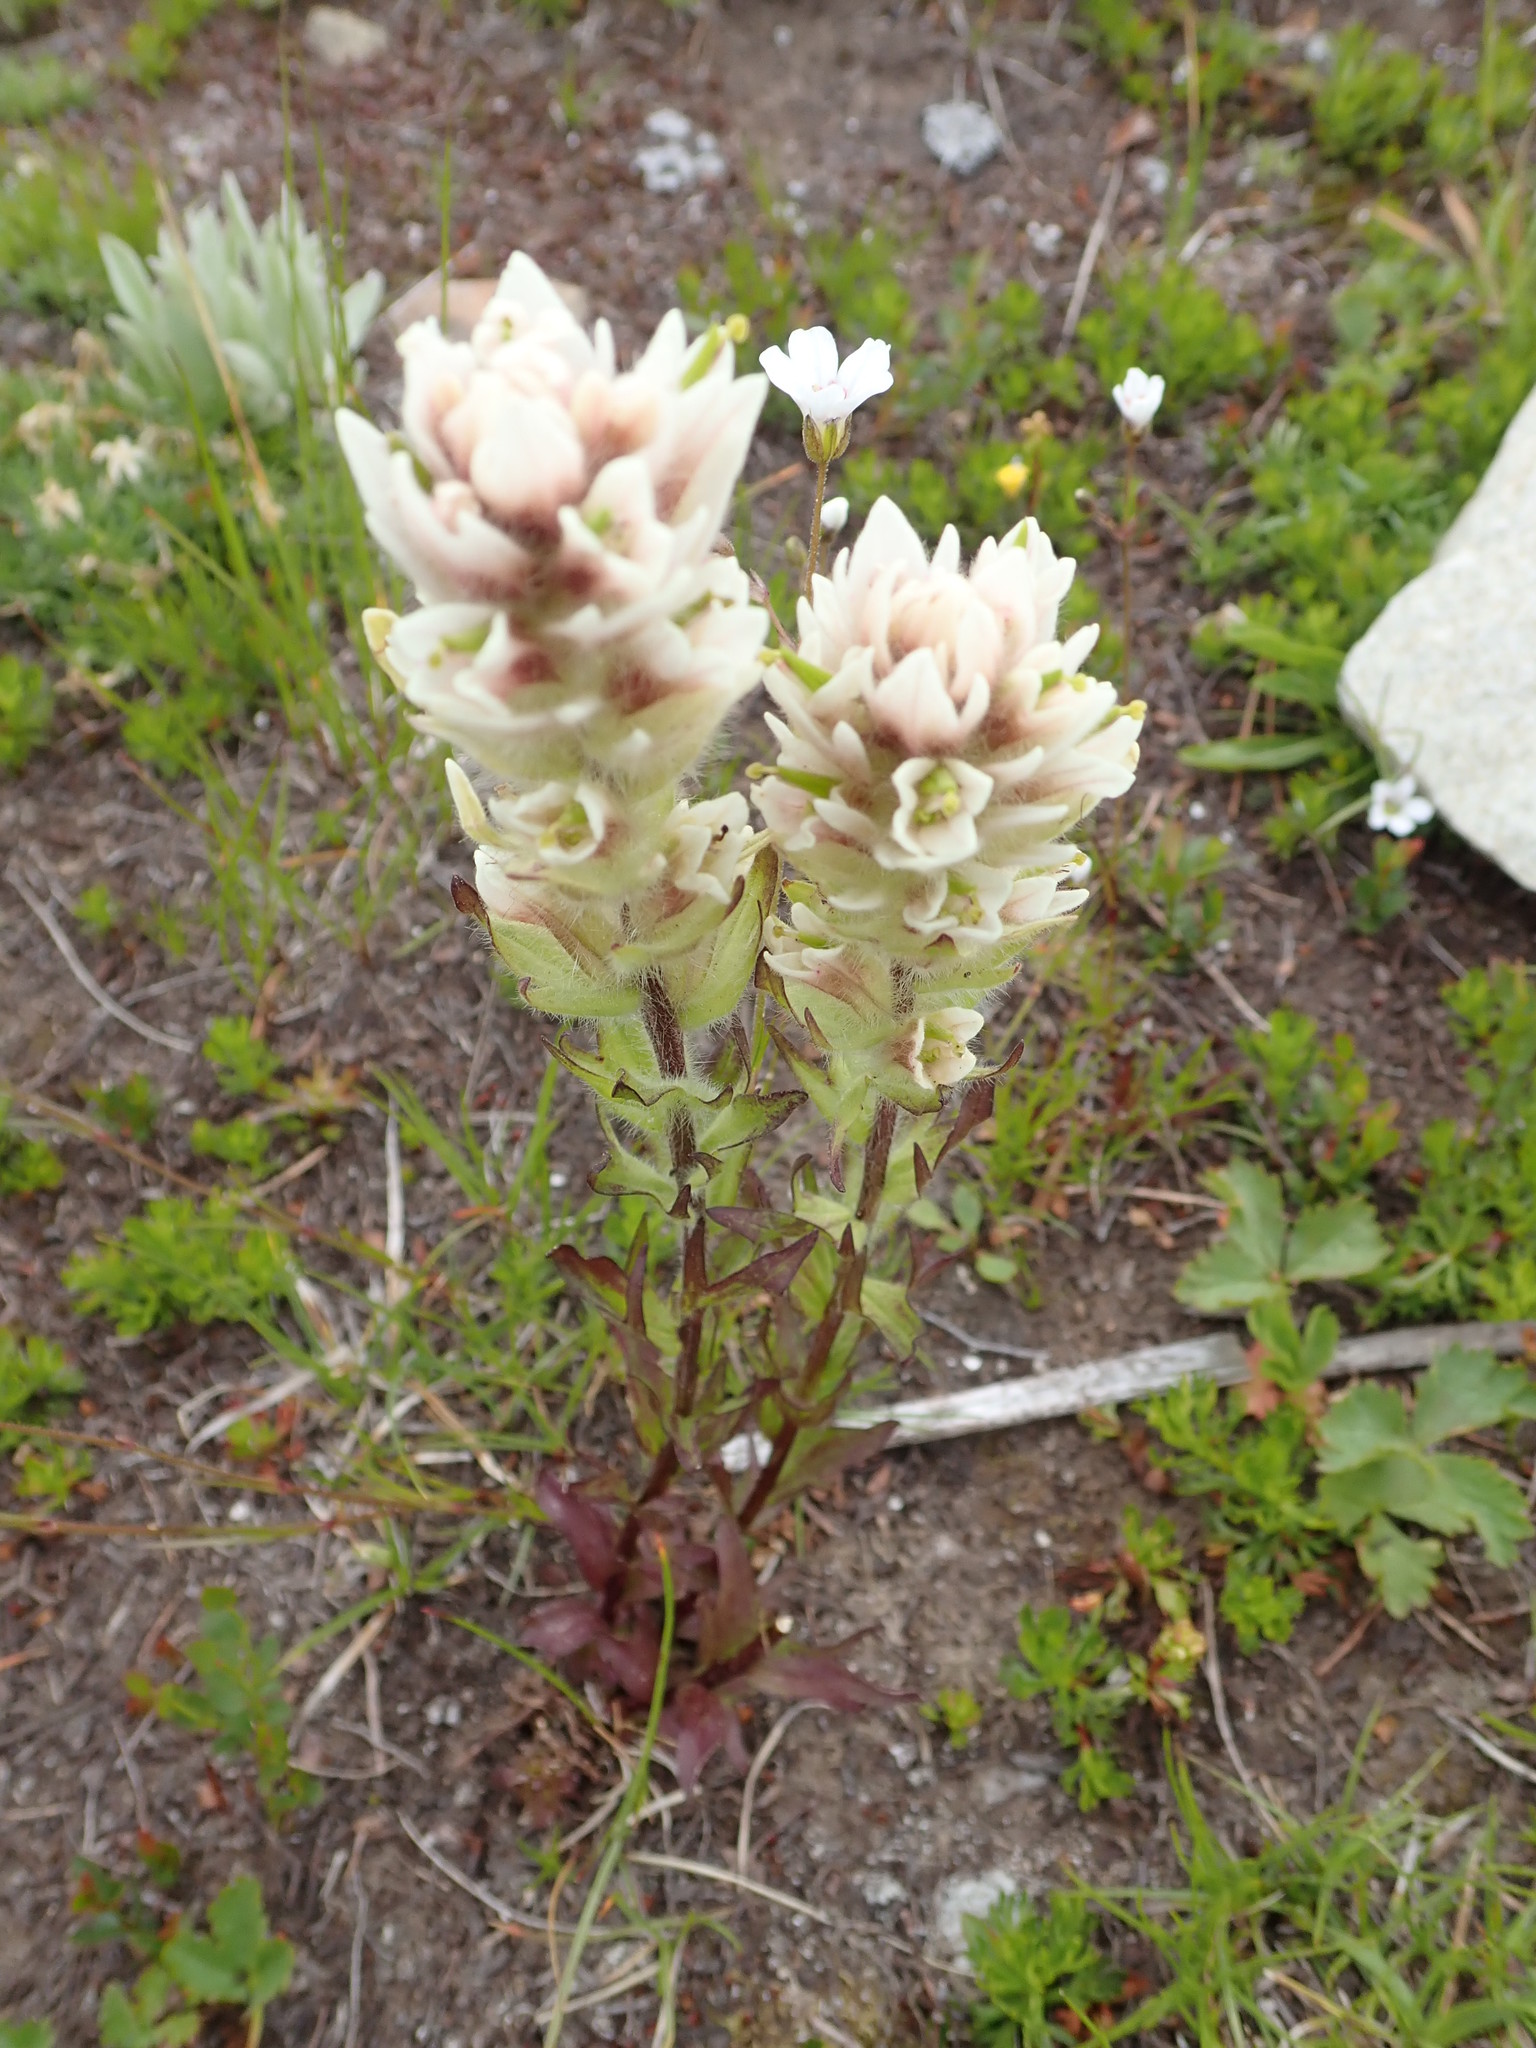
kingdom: Plantae
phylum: Tracheophyta
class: Magnoliopsida
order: Lamiales
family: Orobanchaceae
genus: Castilleja
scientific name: Castilleja parviflora
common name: Mountain paintbrush
